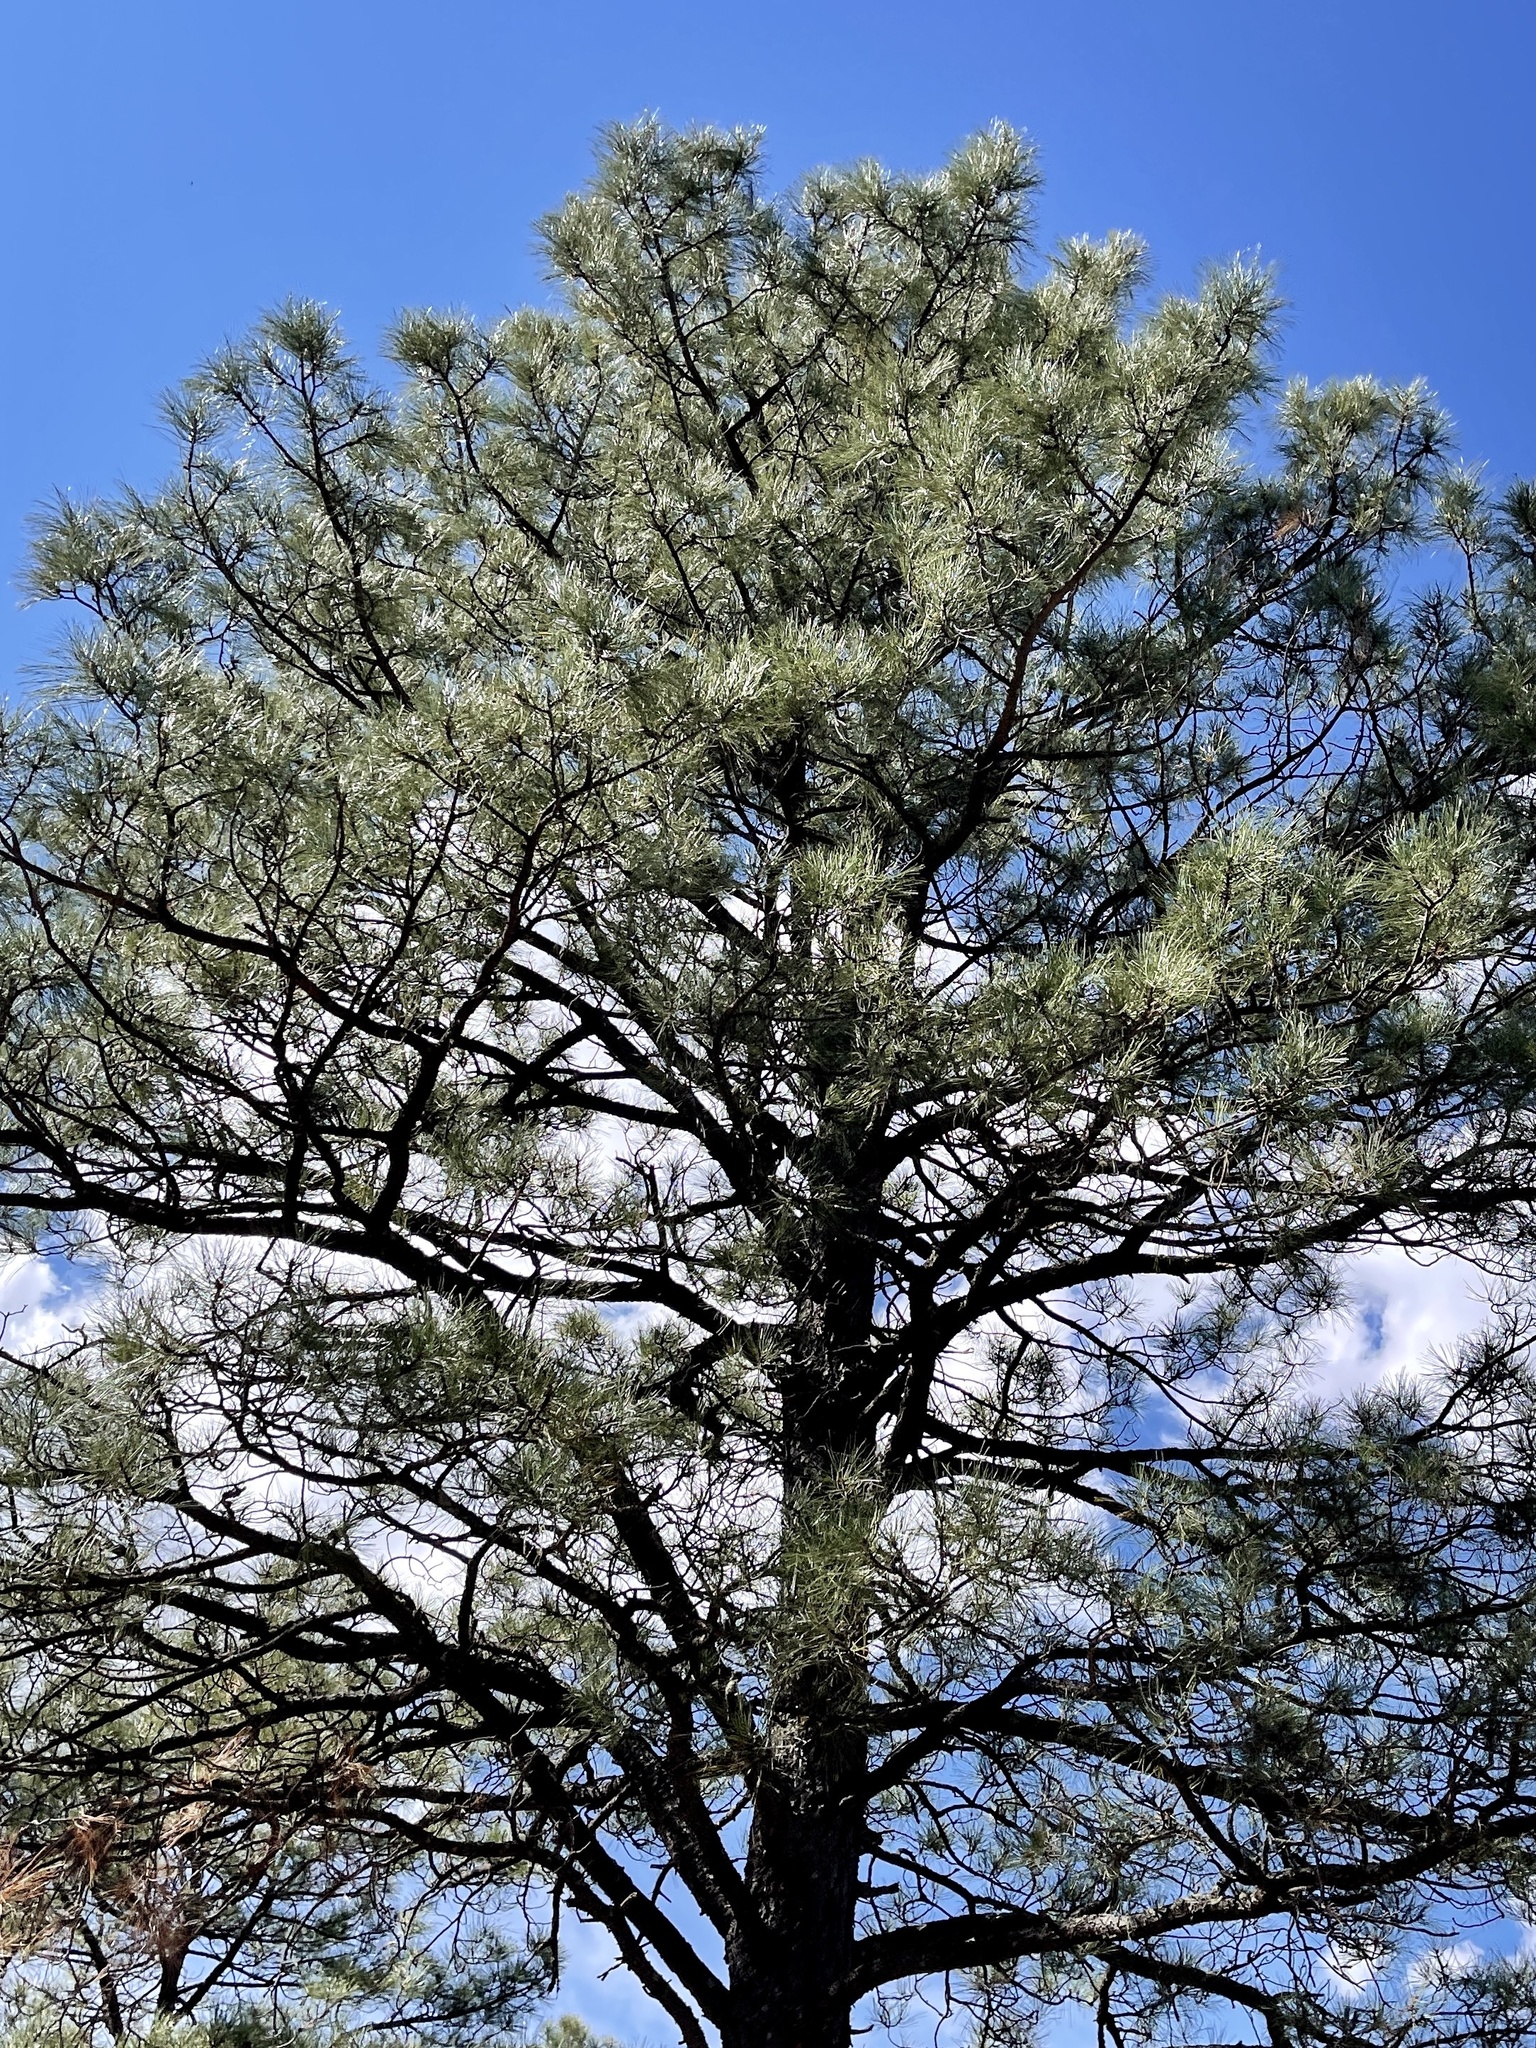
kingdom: Plantae
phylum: Tracheophyta
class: Pinopsida
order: Pinales
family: Pinaceae
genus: Pinus
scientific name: Pinus ponderosa
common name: Western yellow-pine
